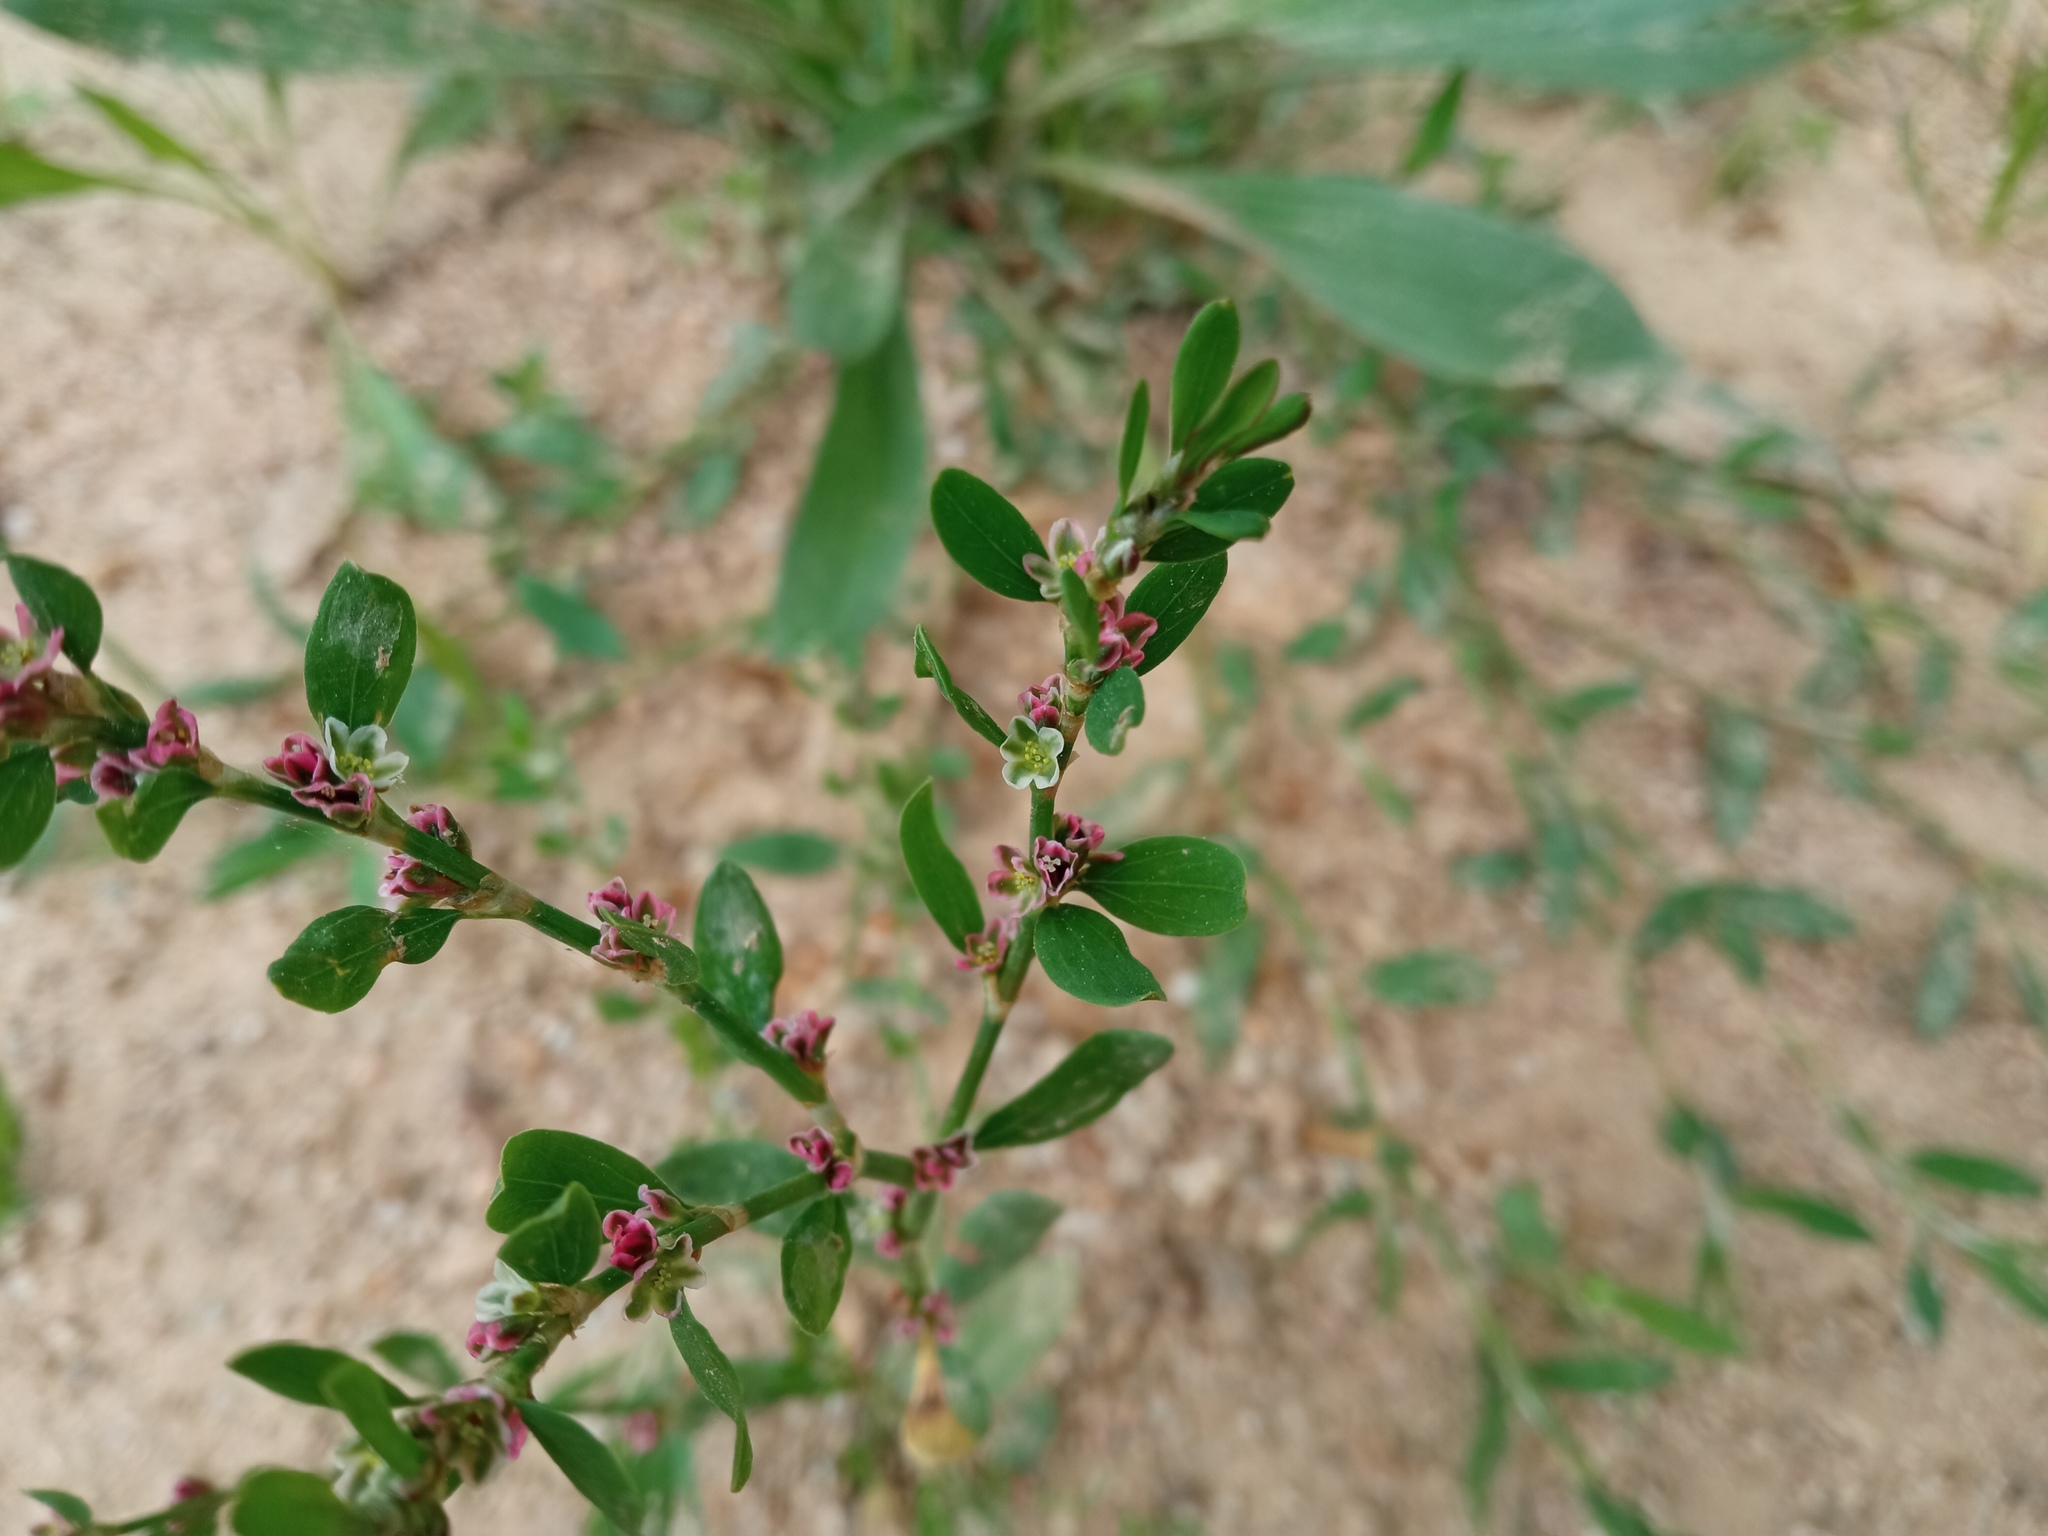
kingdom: Plantae
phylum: Tracheophyta
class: Magnoliopsida
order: Caryophyllales
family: Polygonaceae
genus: Polygonum
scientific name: Polygonum aviculare
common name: Prostrate knotweed
